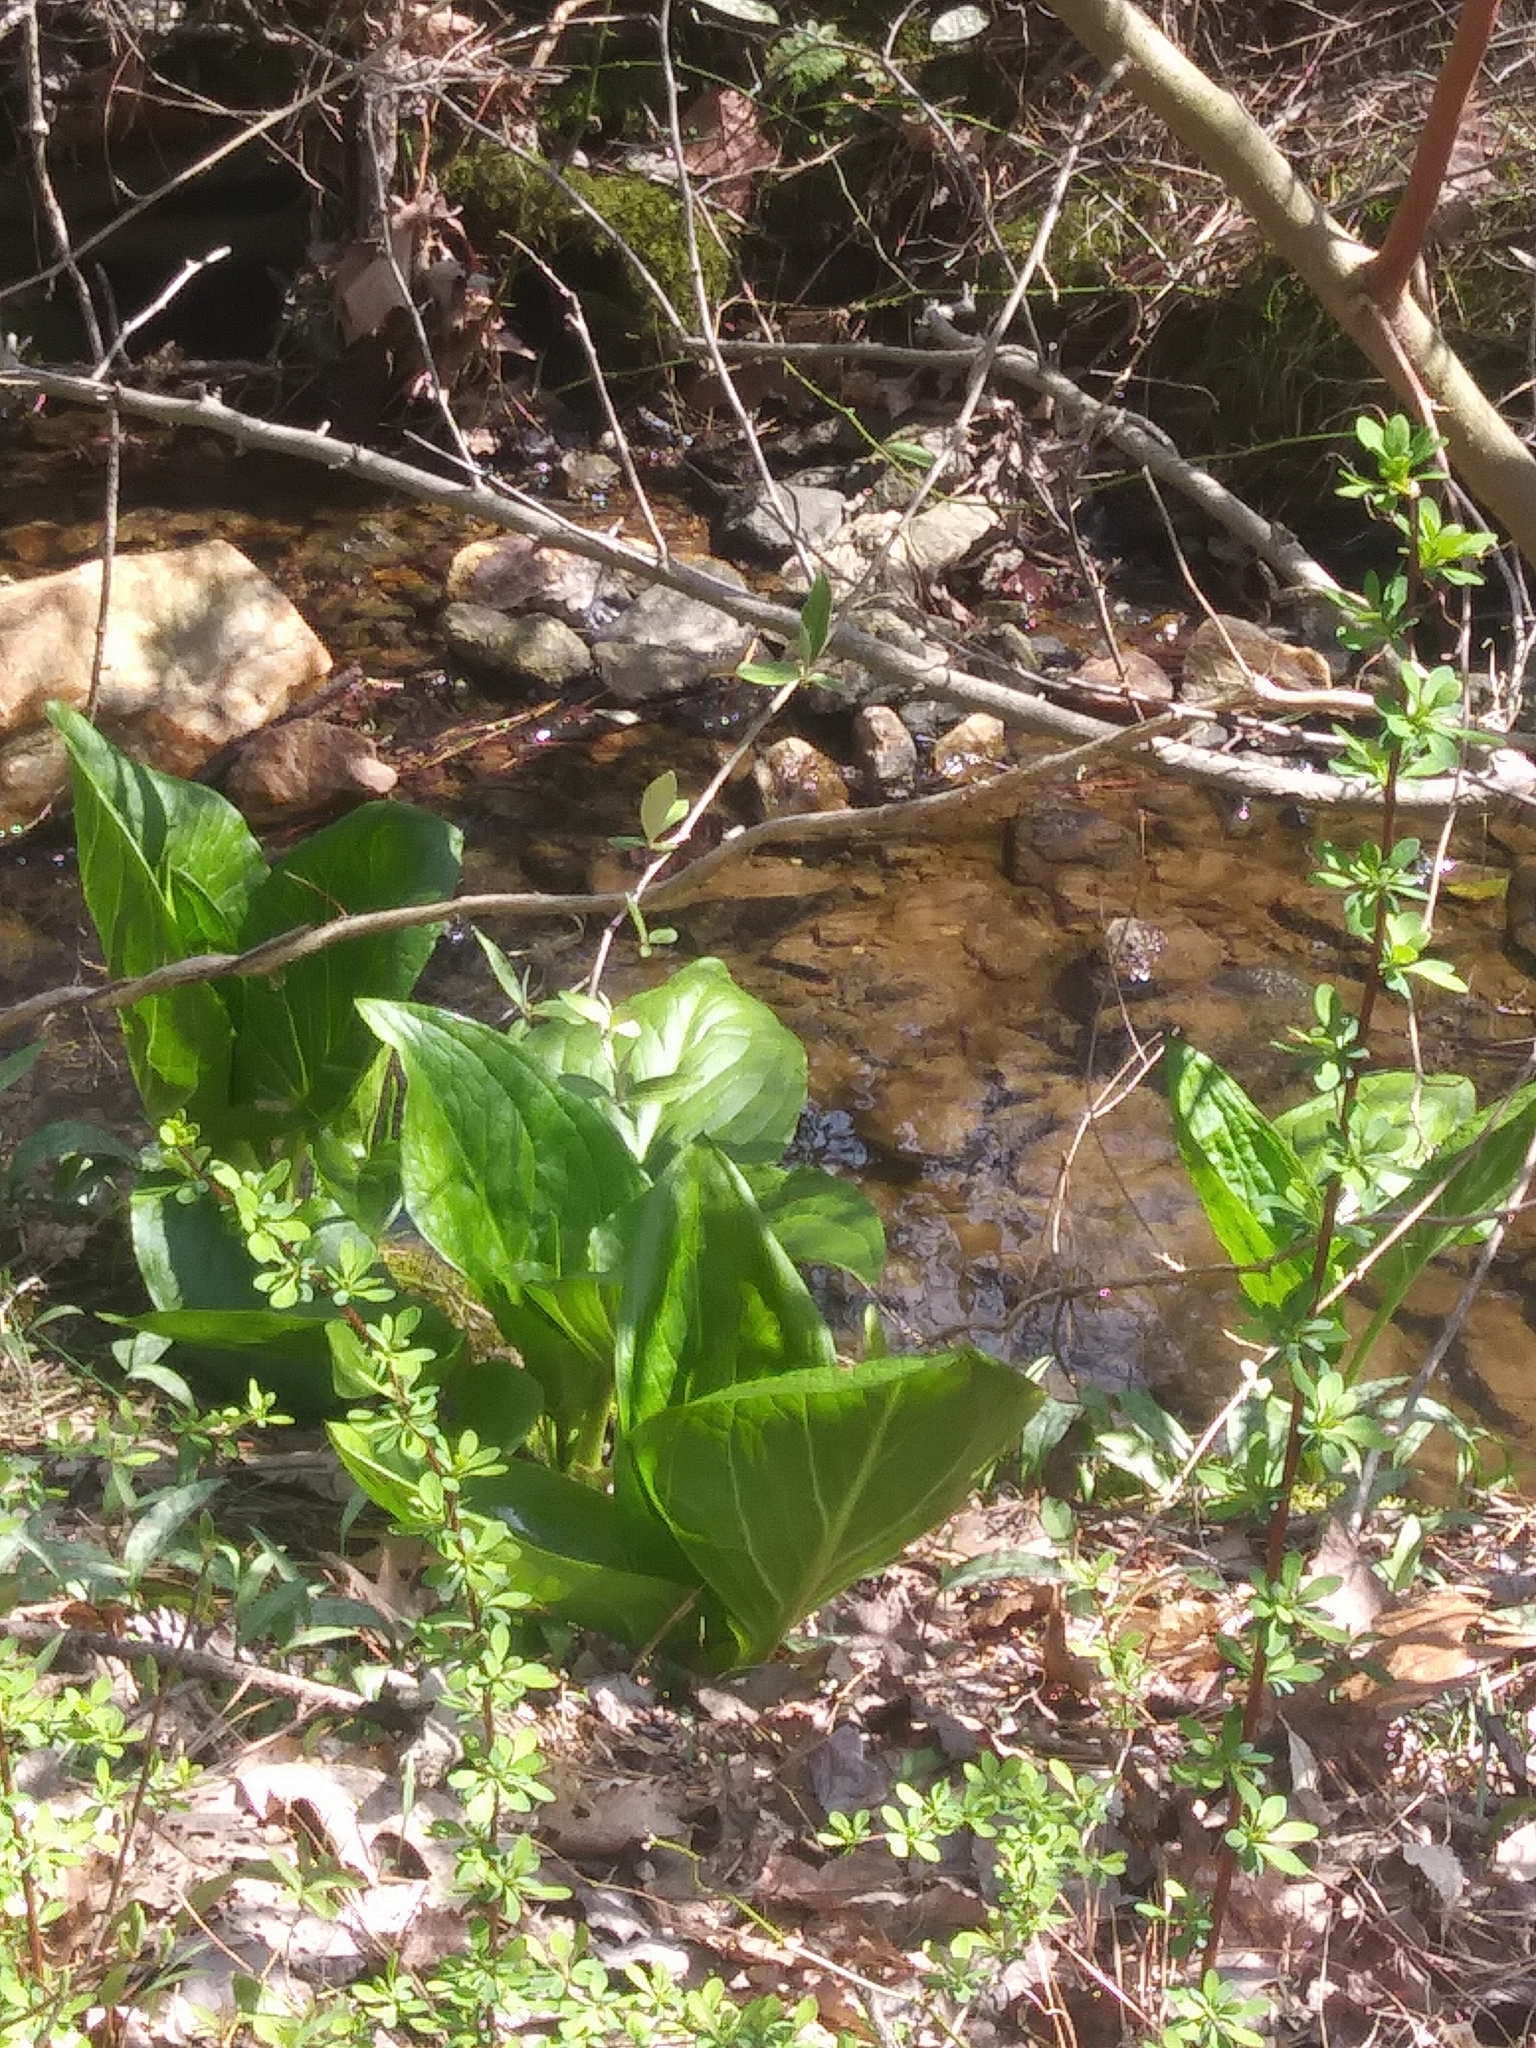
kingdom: Plantae
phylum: Tracheophyta
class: Liliopsida
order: Alismatales
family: Araceae
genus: Symplocarpus
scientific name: Symplocarpus foetidus
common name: Eastern skunk cabbage
